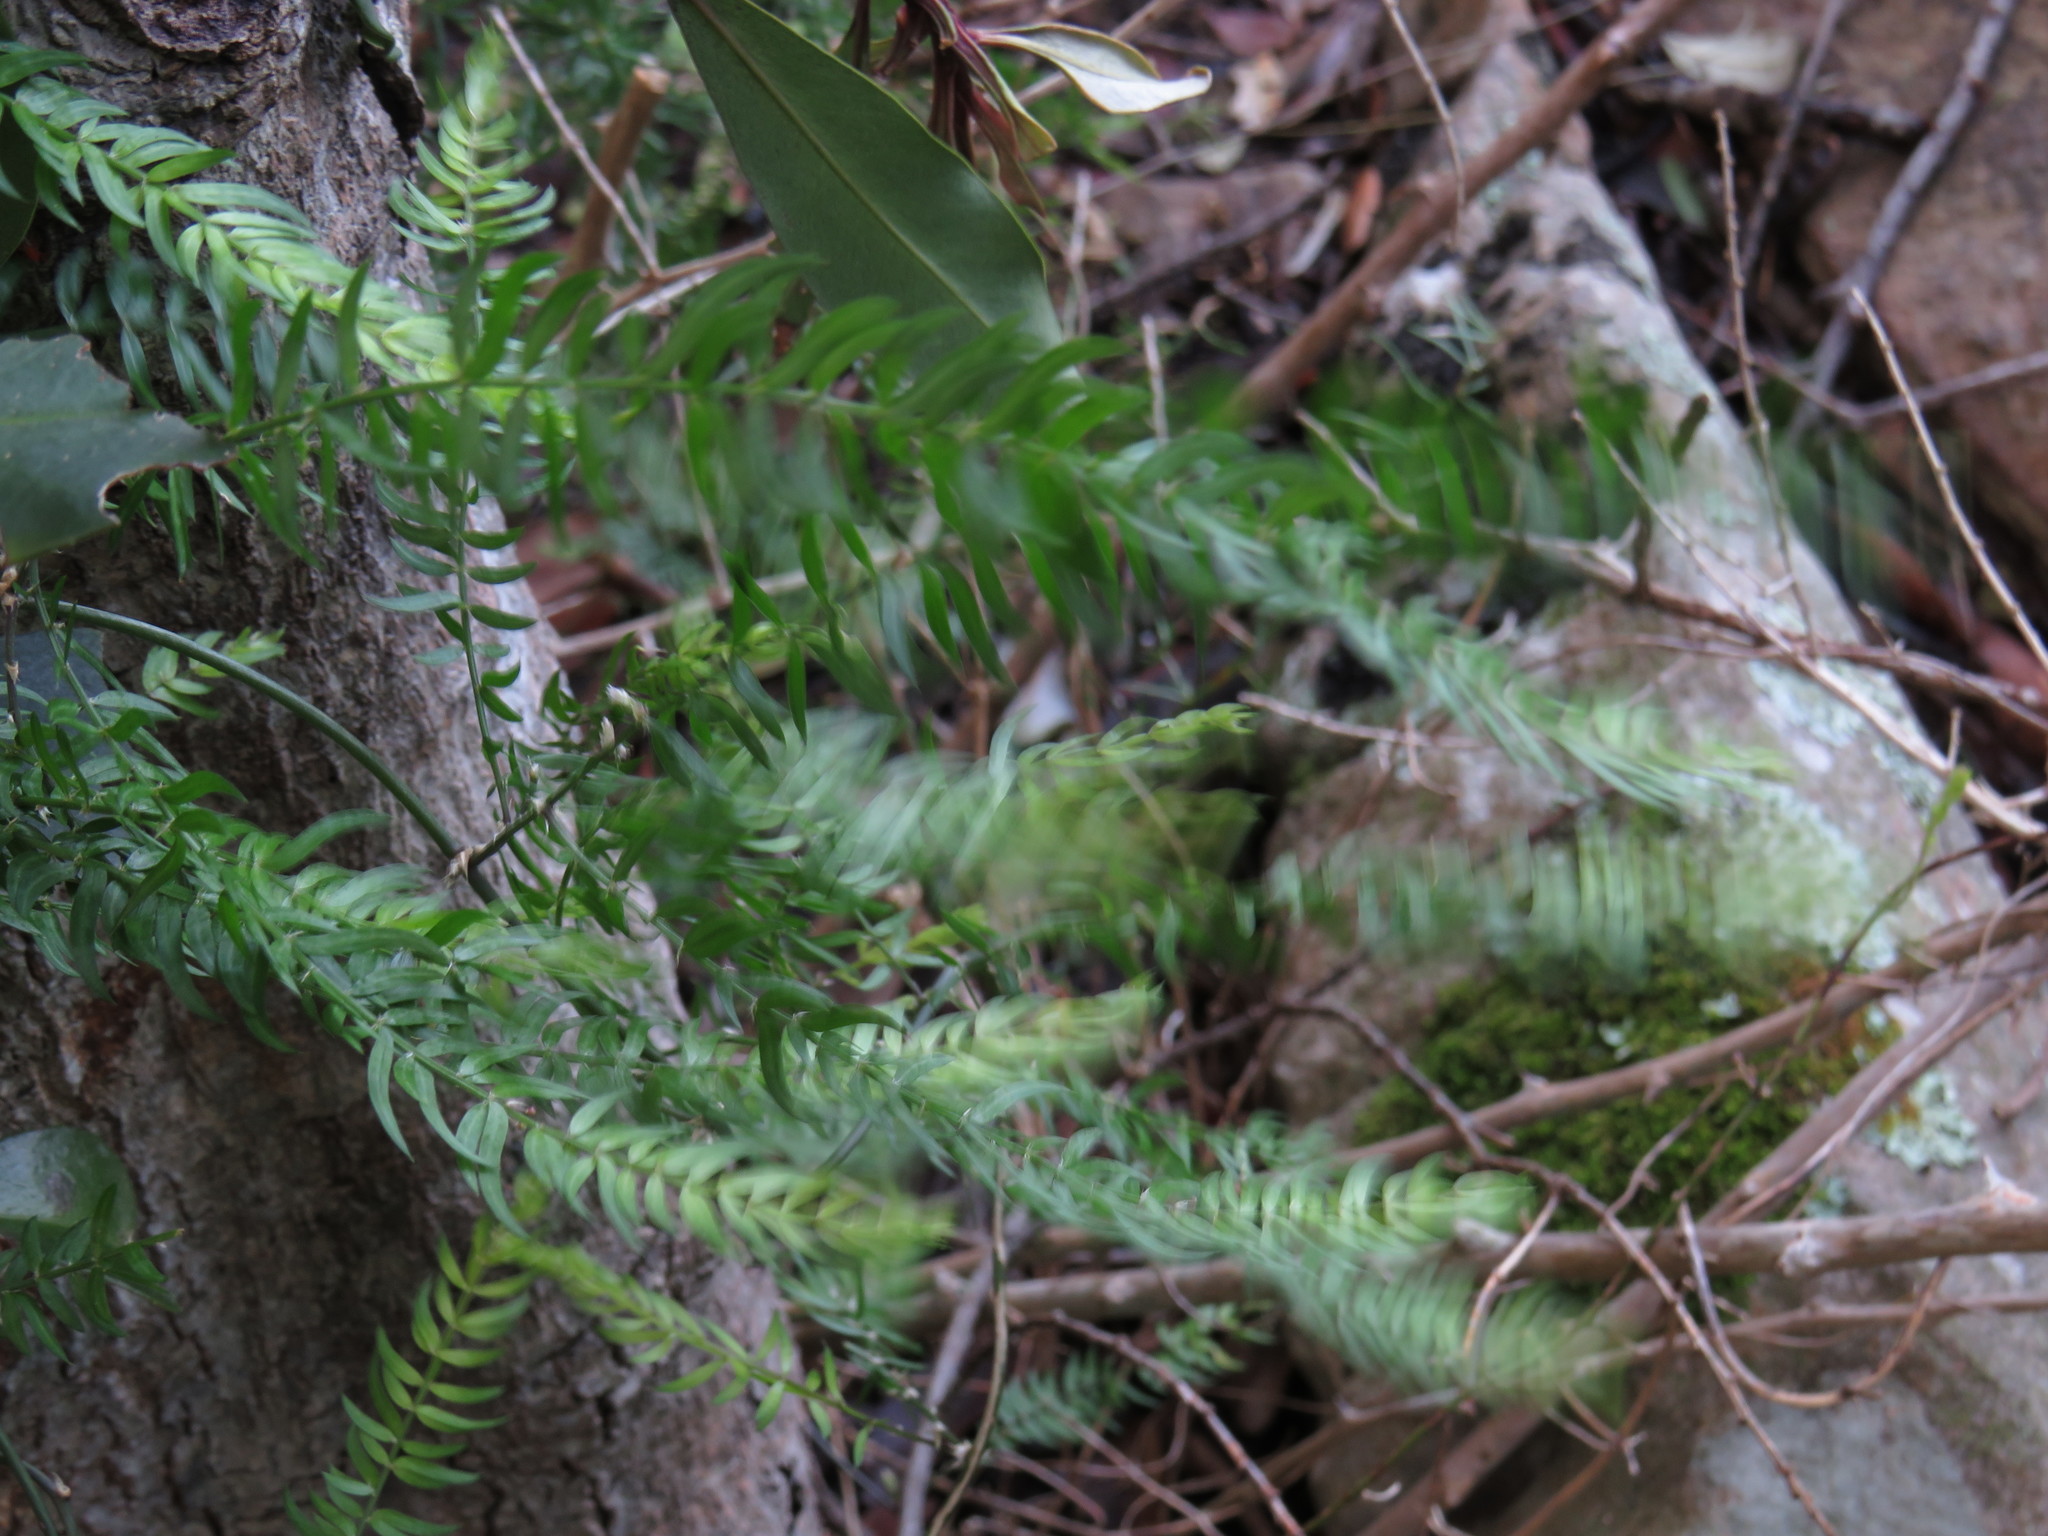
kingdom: Plantae
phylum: Tracheophyta
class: Liliopsida
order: Asparagales
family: Asparagaceae
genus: Asparagus
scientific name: Asparagus scandens
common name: Asparagus-fern
